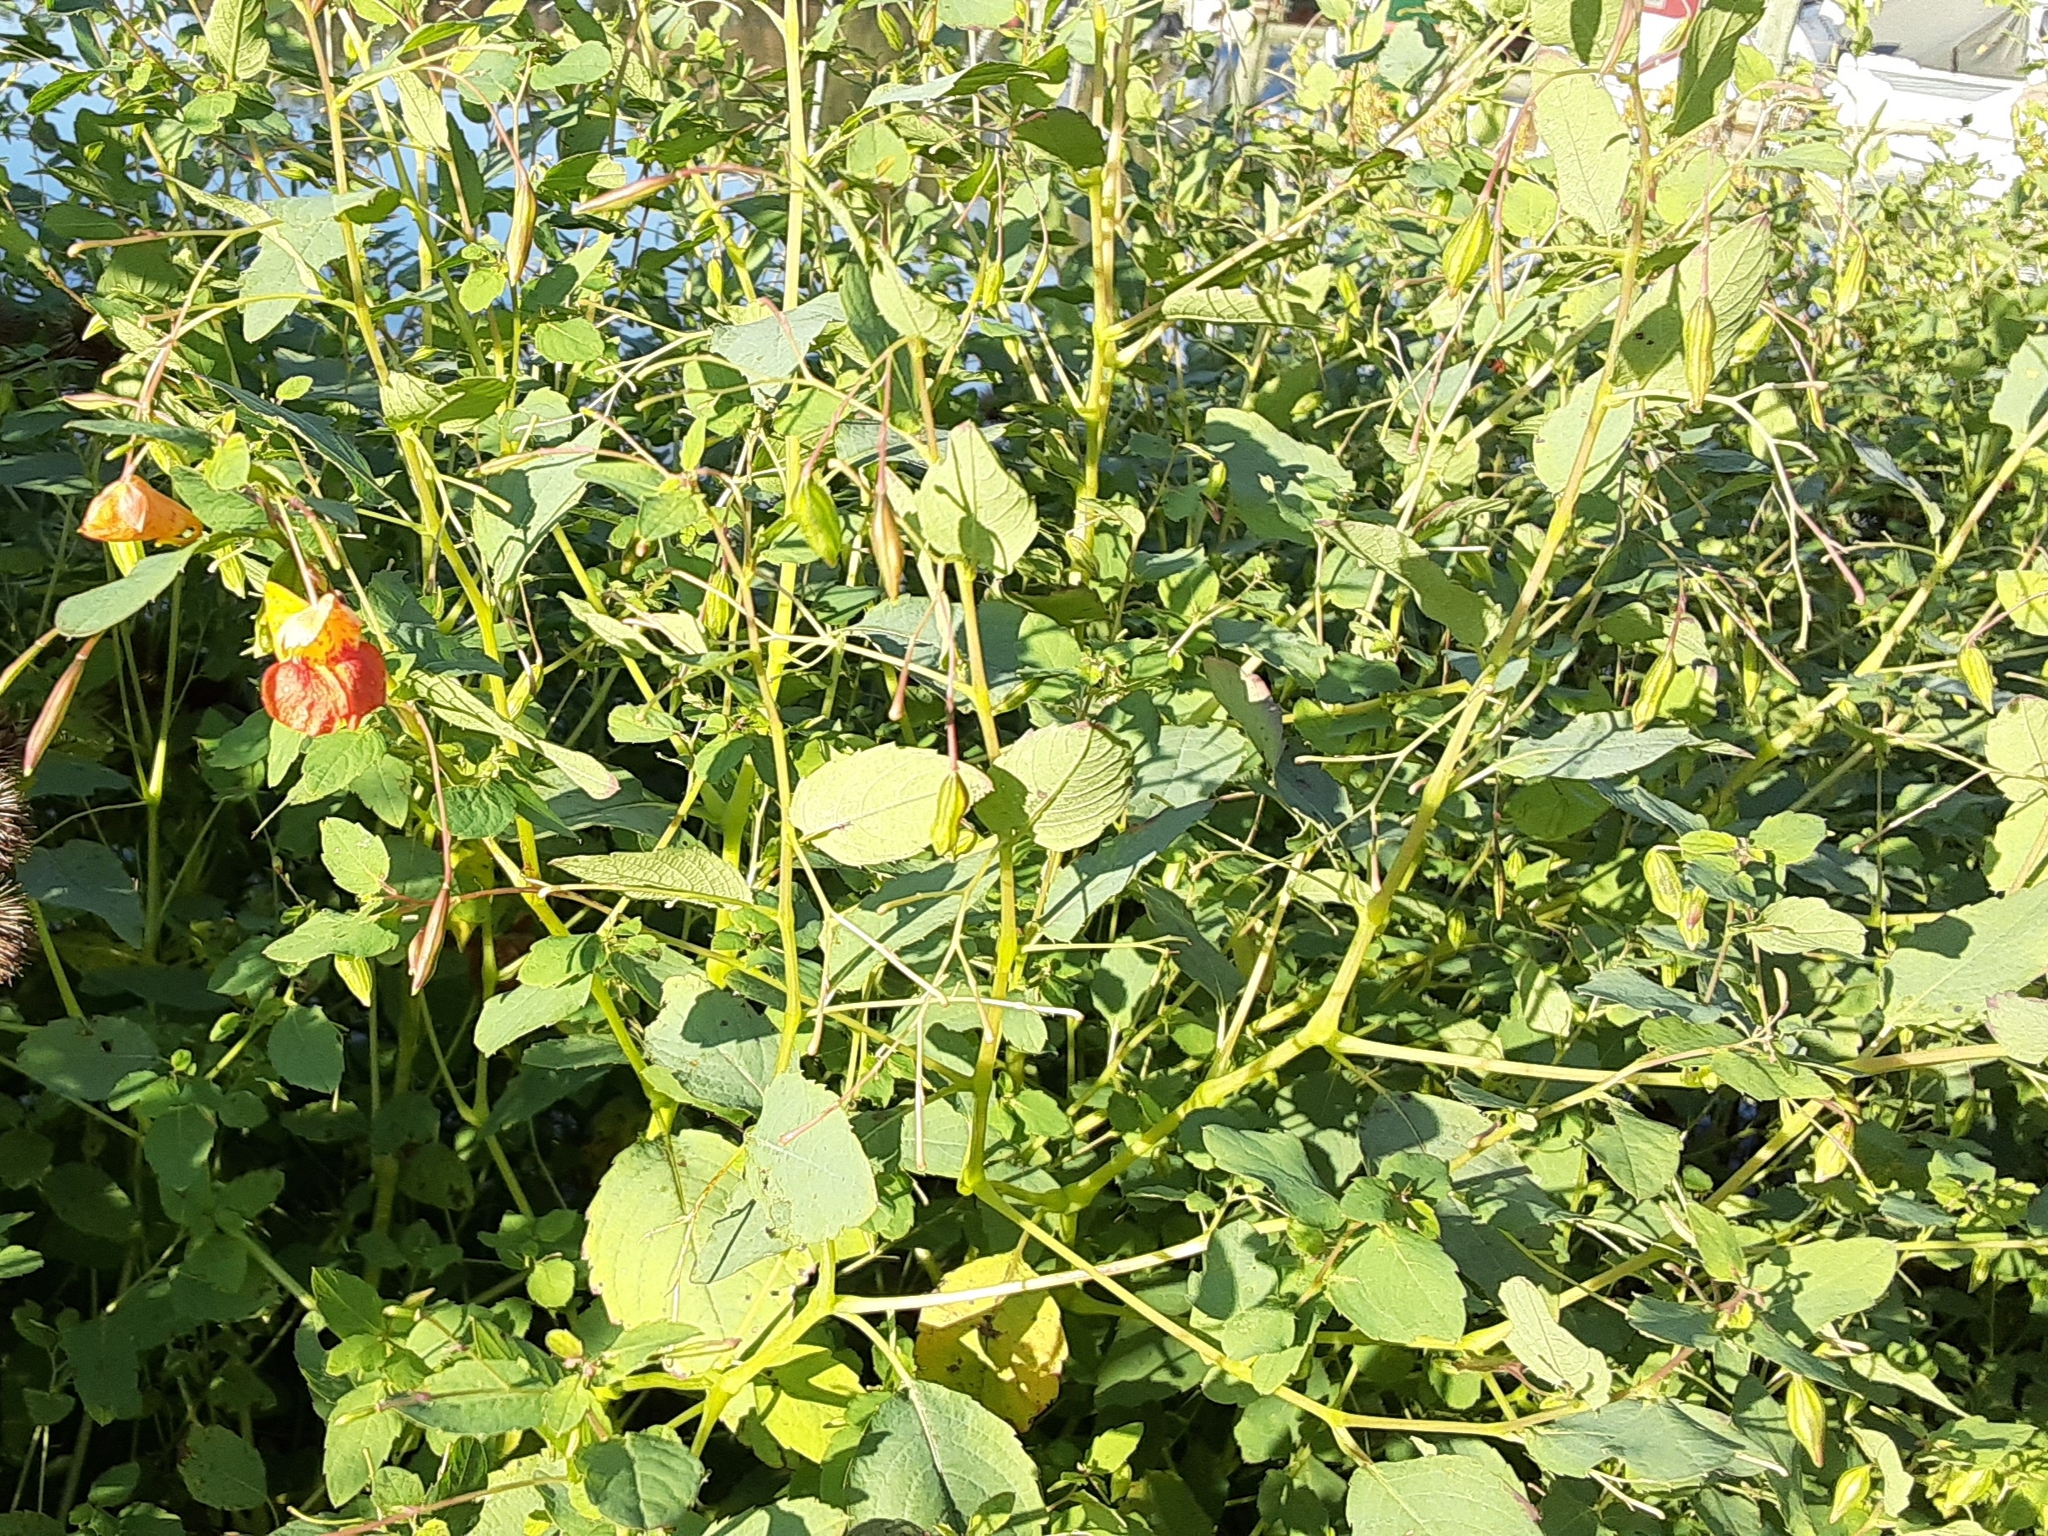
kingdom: Plantae
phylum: Tracheophyta
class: Magnoliopsida
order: Ericales
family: Balsaminaceae
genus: Impatiens
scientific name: Impatiens capensis
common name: Orange balsam
